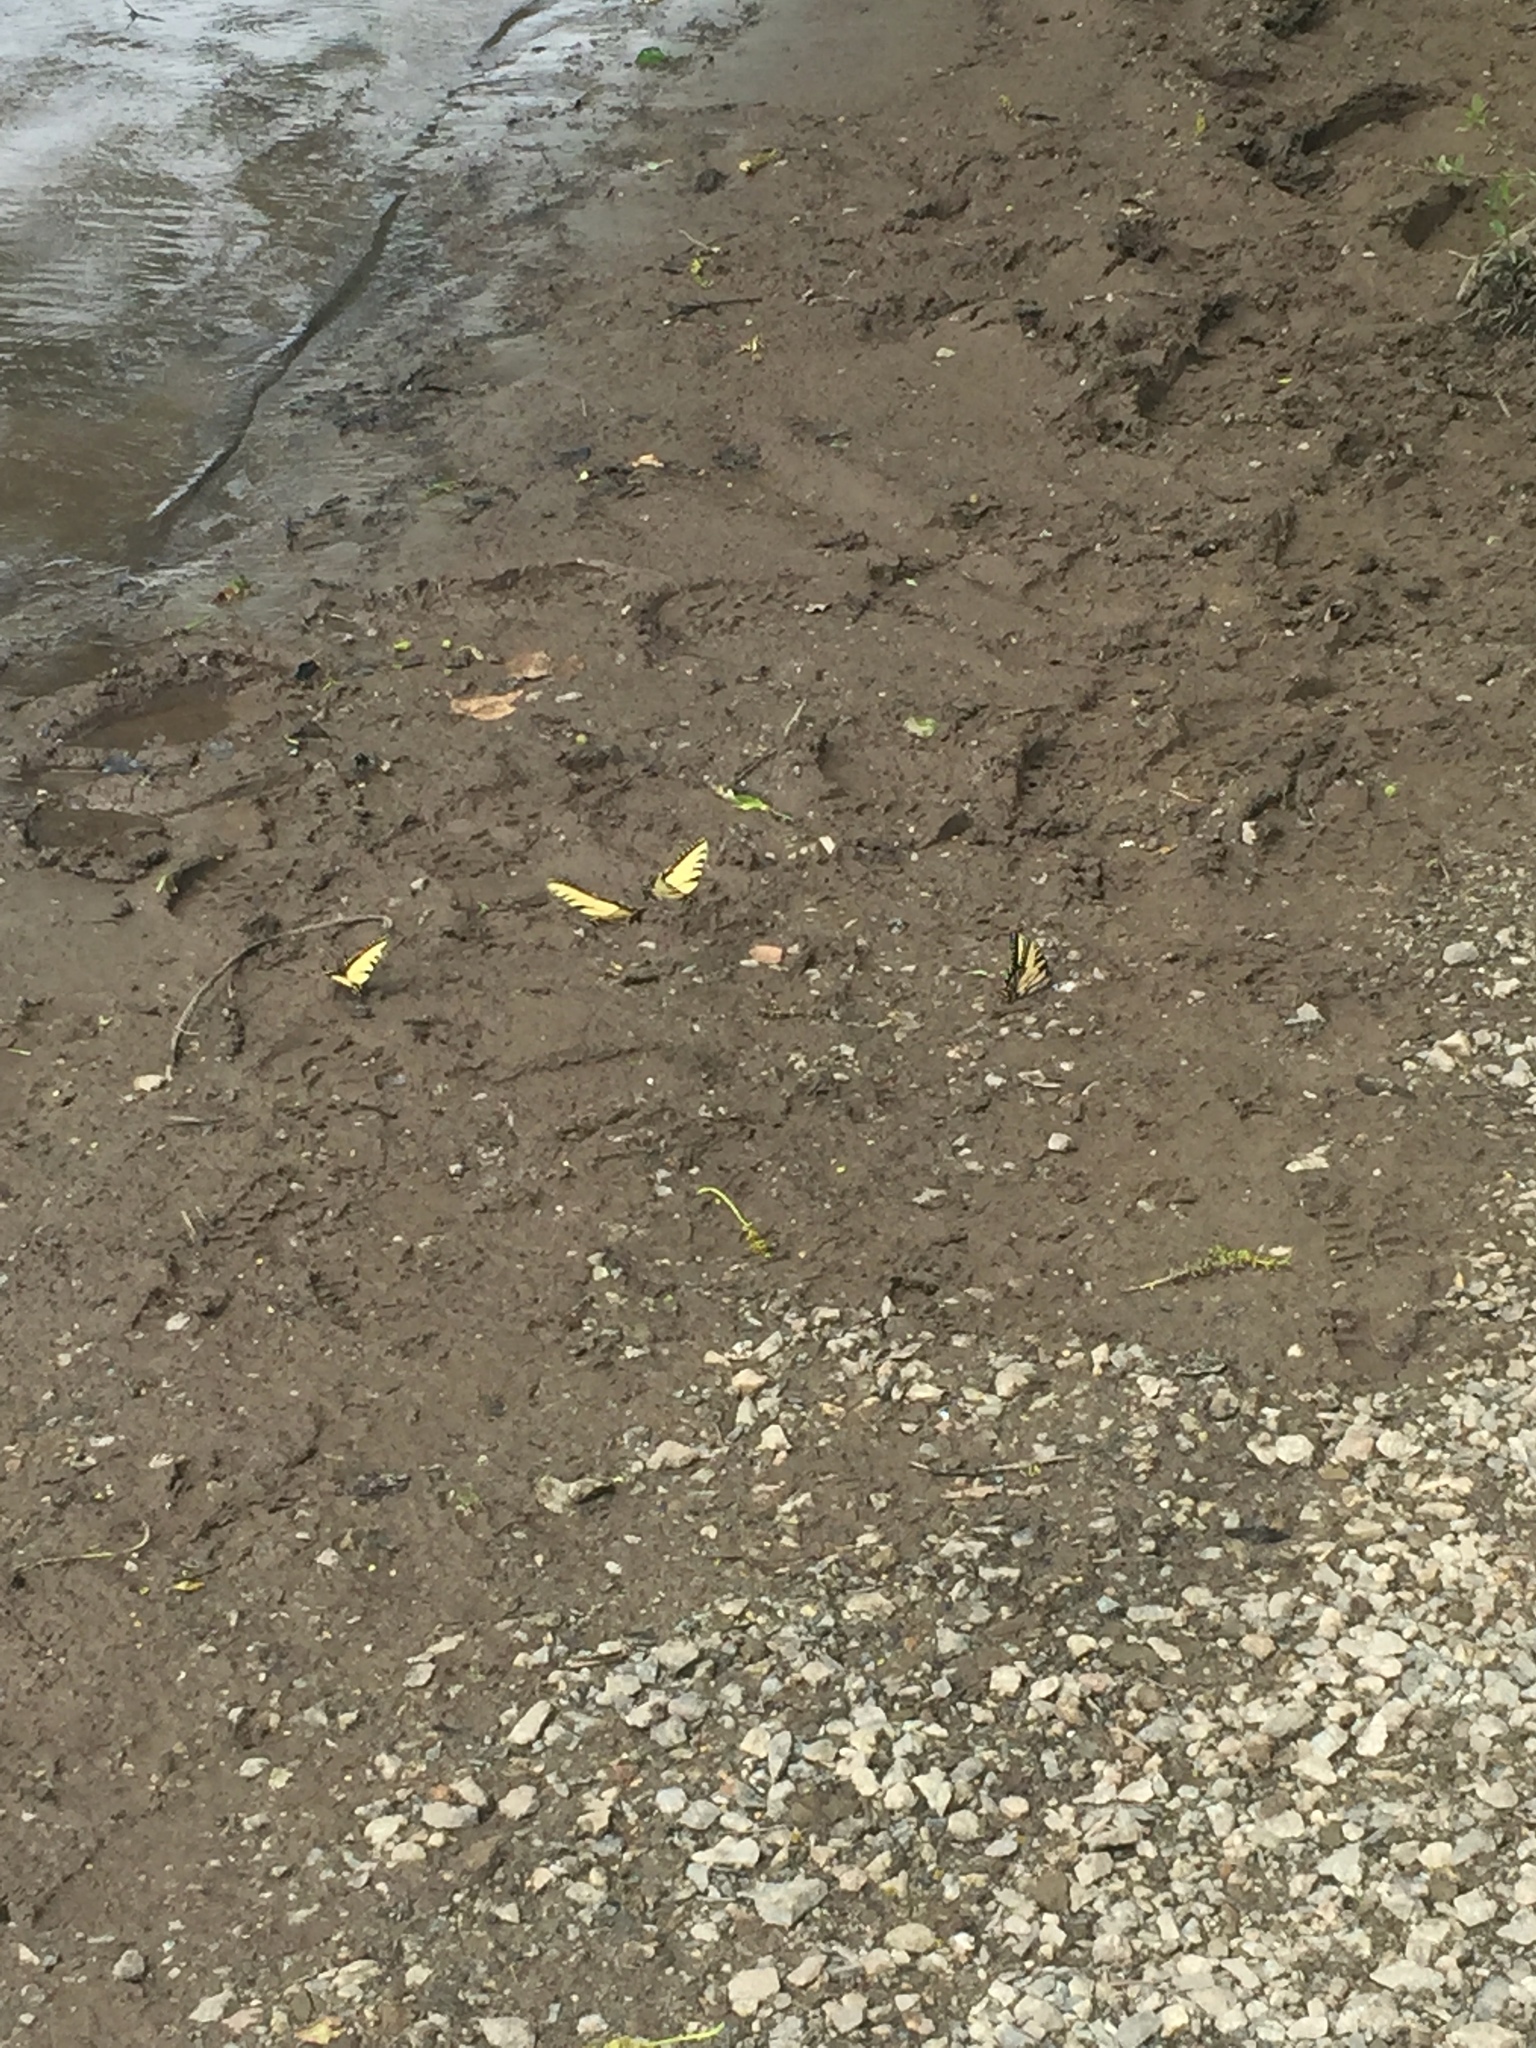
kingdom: Animalia
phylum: Arthropoda
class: Insecta
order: Lepidoptera
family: Papilionidae
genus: Papilio
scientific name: Papilio glaucus
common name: Tiger swallowtail
